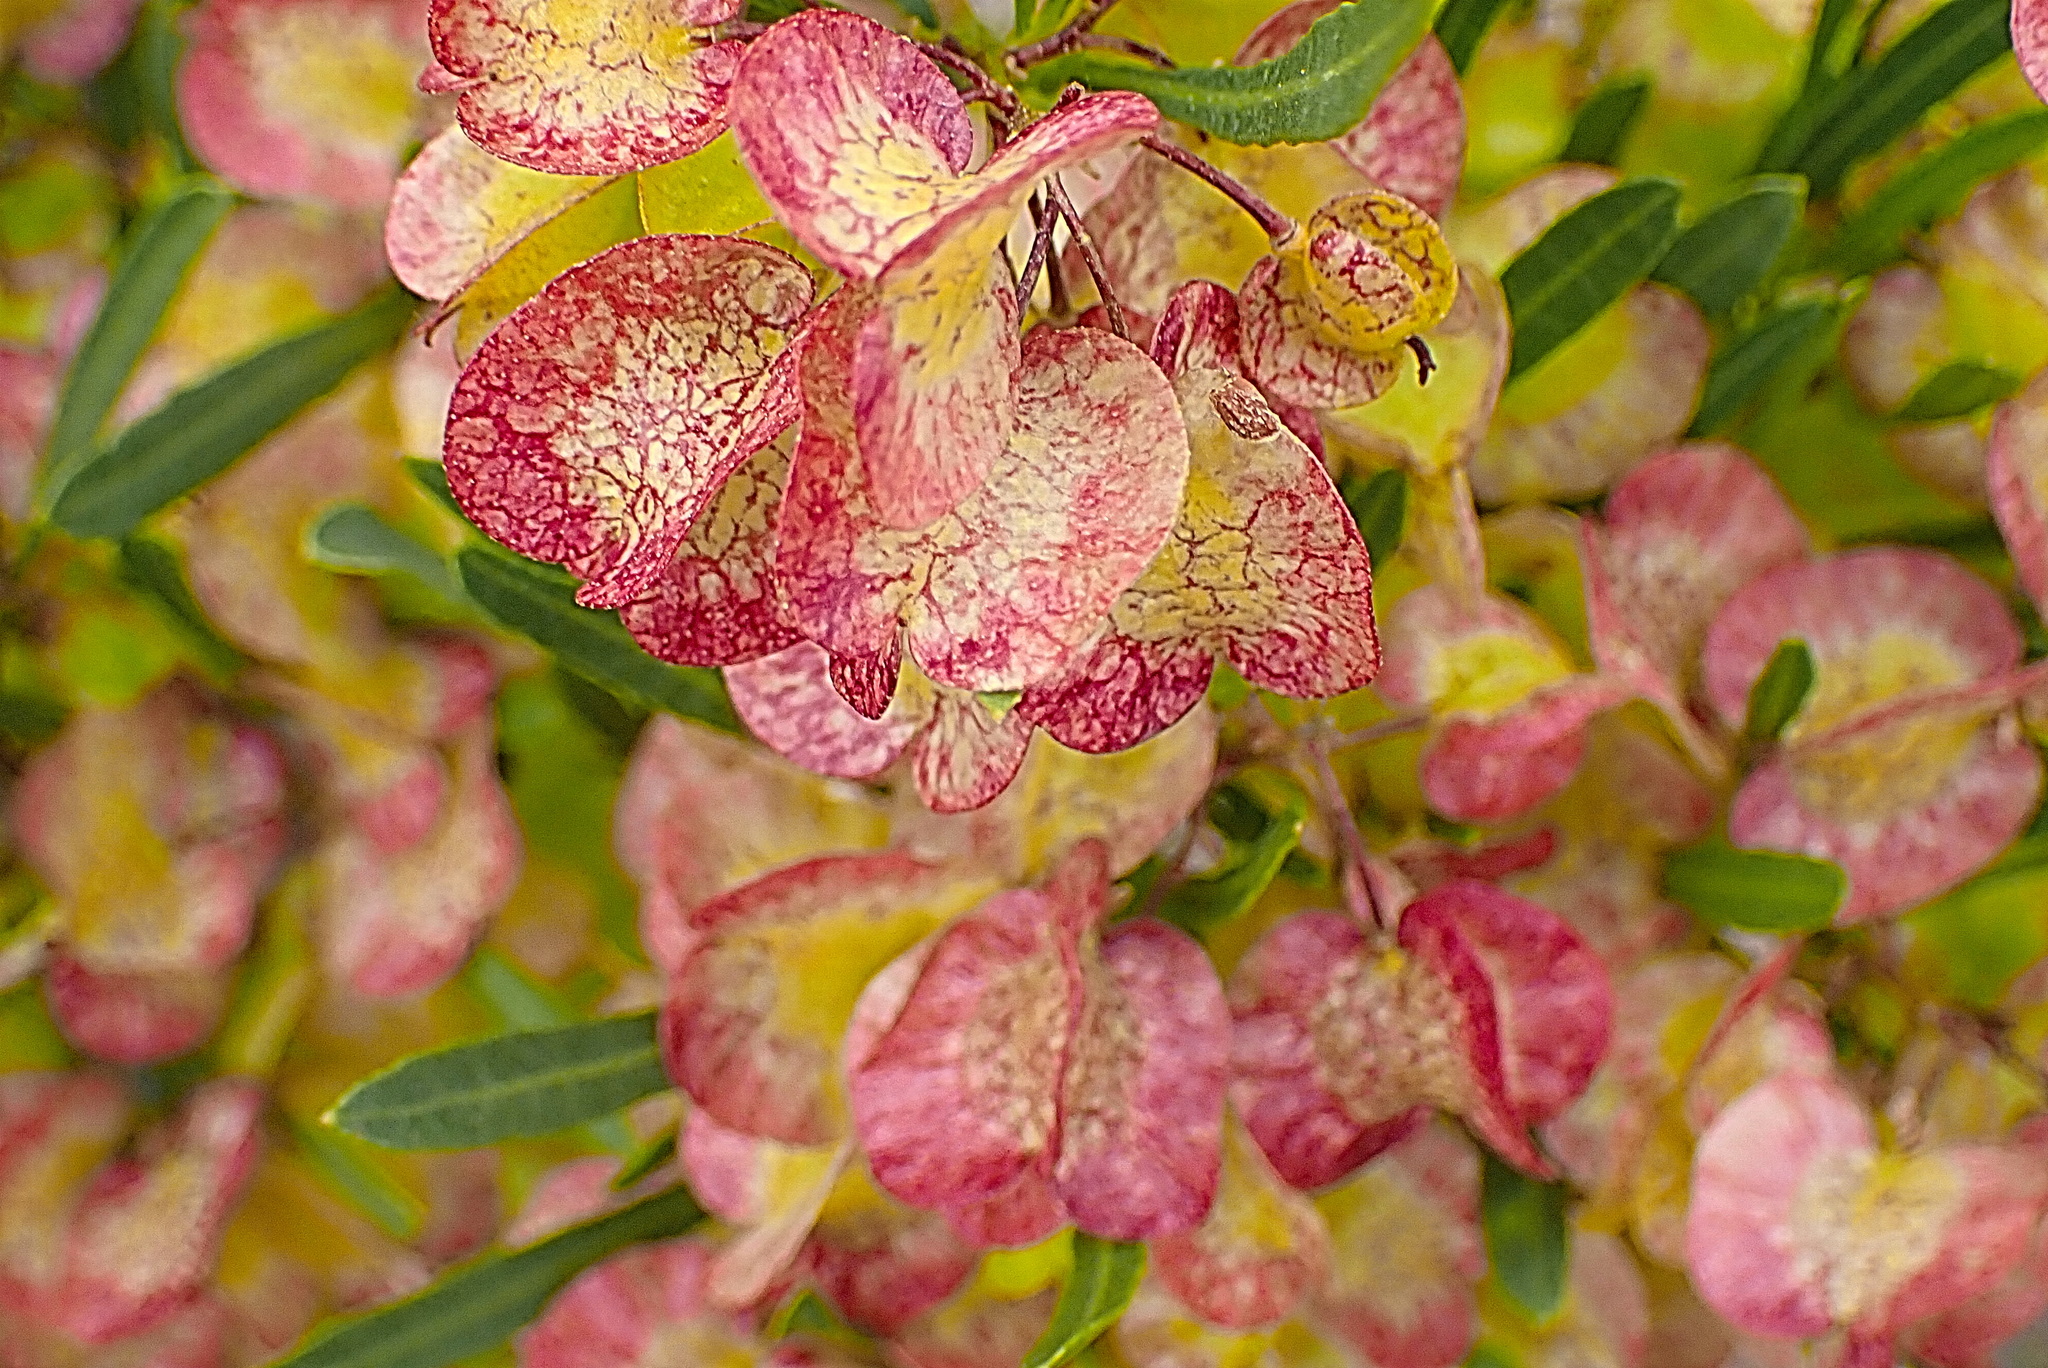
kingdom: Plantae
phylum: Tracheophyta
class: Magnoliopsida
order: Sapindales
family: Sapindaceae
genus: Dodonaea
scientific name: Dodonaea viscosa
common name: Hopbush
